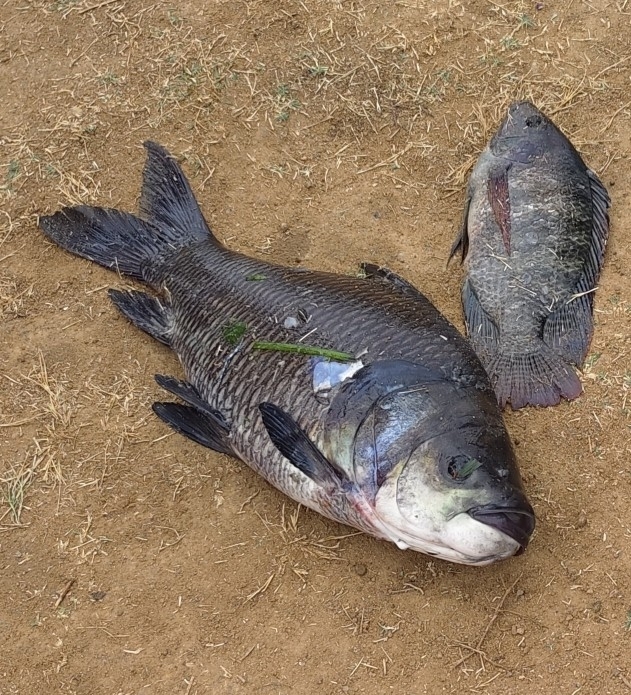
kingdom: Animalia
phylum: Chordata
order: Cypriniformes
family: Cyprinidae
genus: Gibelion
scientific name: Gibelion catla
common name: Catla
